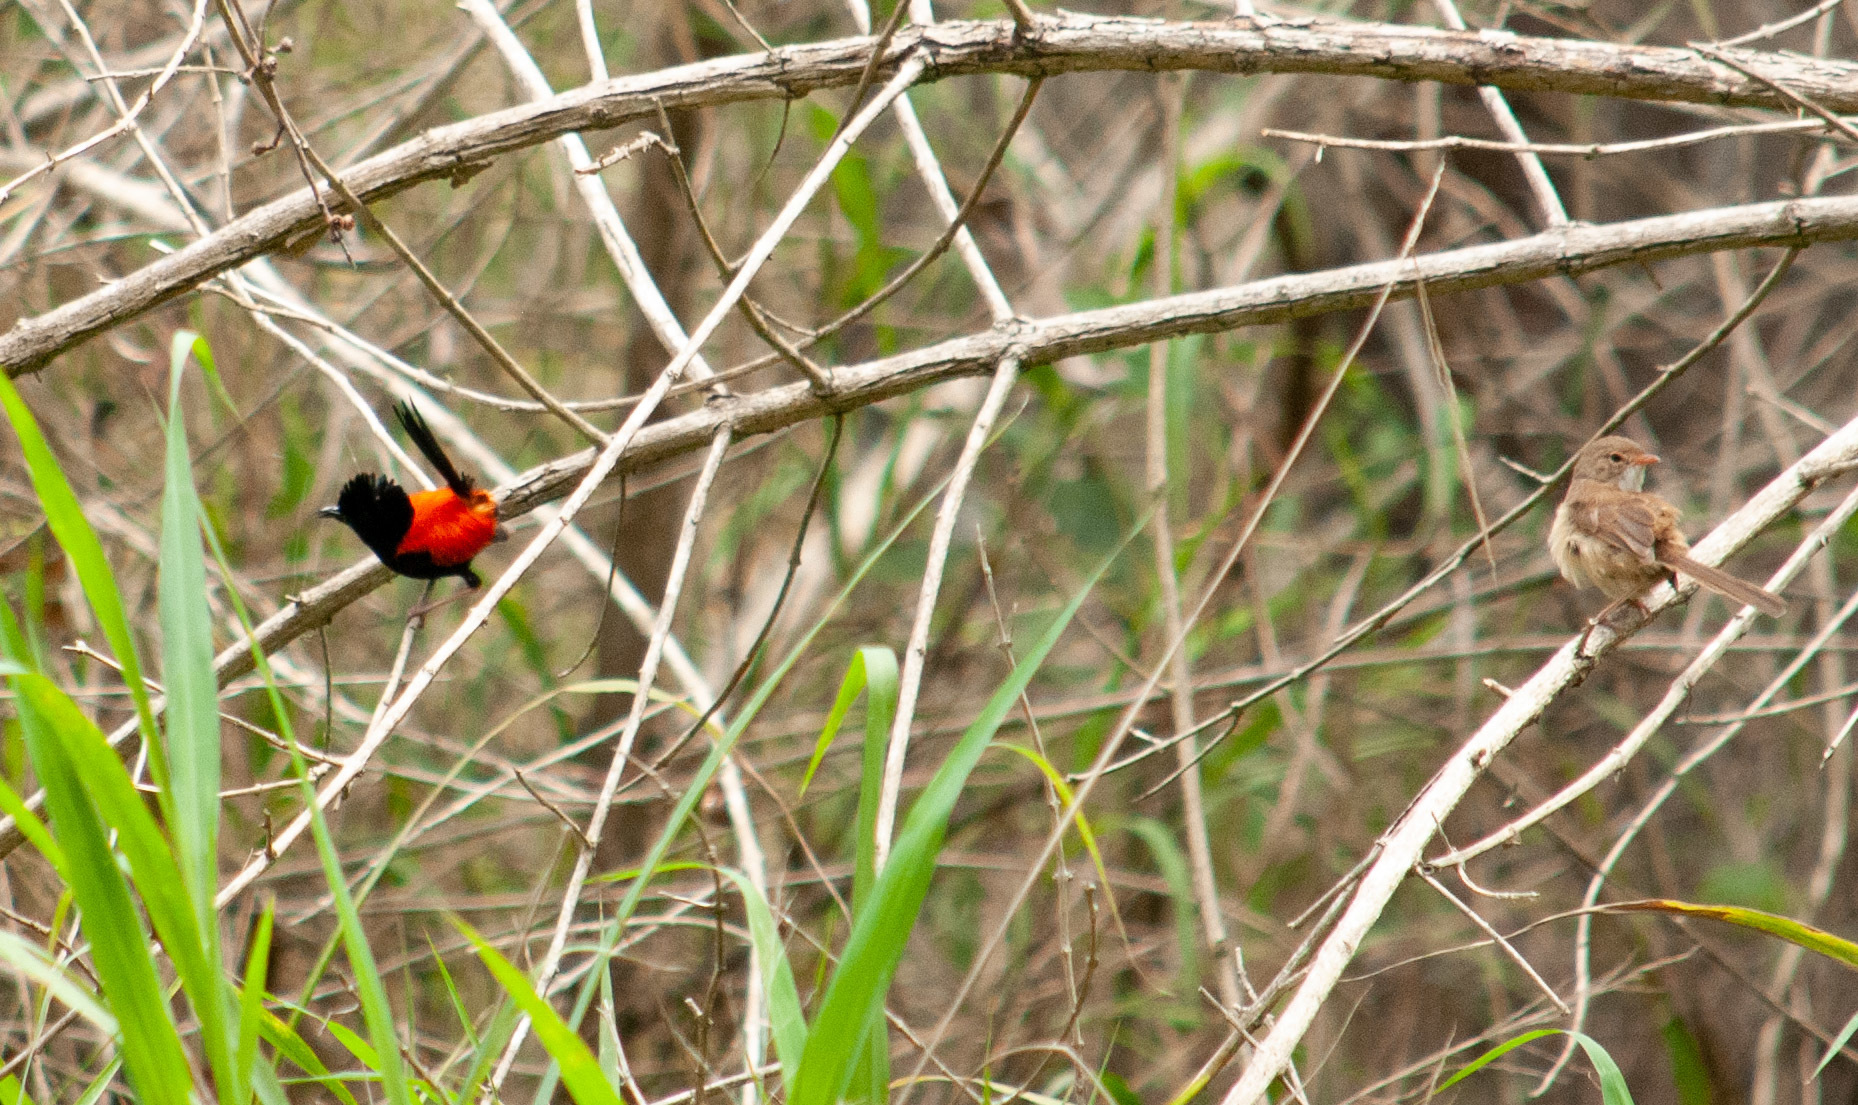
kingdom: Animalia
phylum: Chordata
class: Aves
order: Passeriformes
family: Maluridae
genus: Malurus
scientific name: Malurus melanocephalus
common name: Red-backed fairywren
